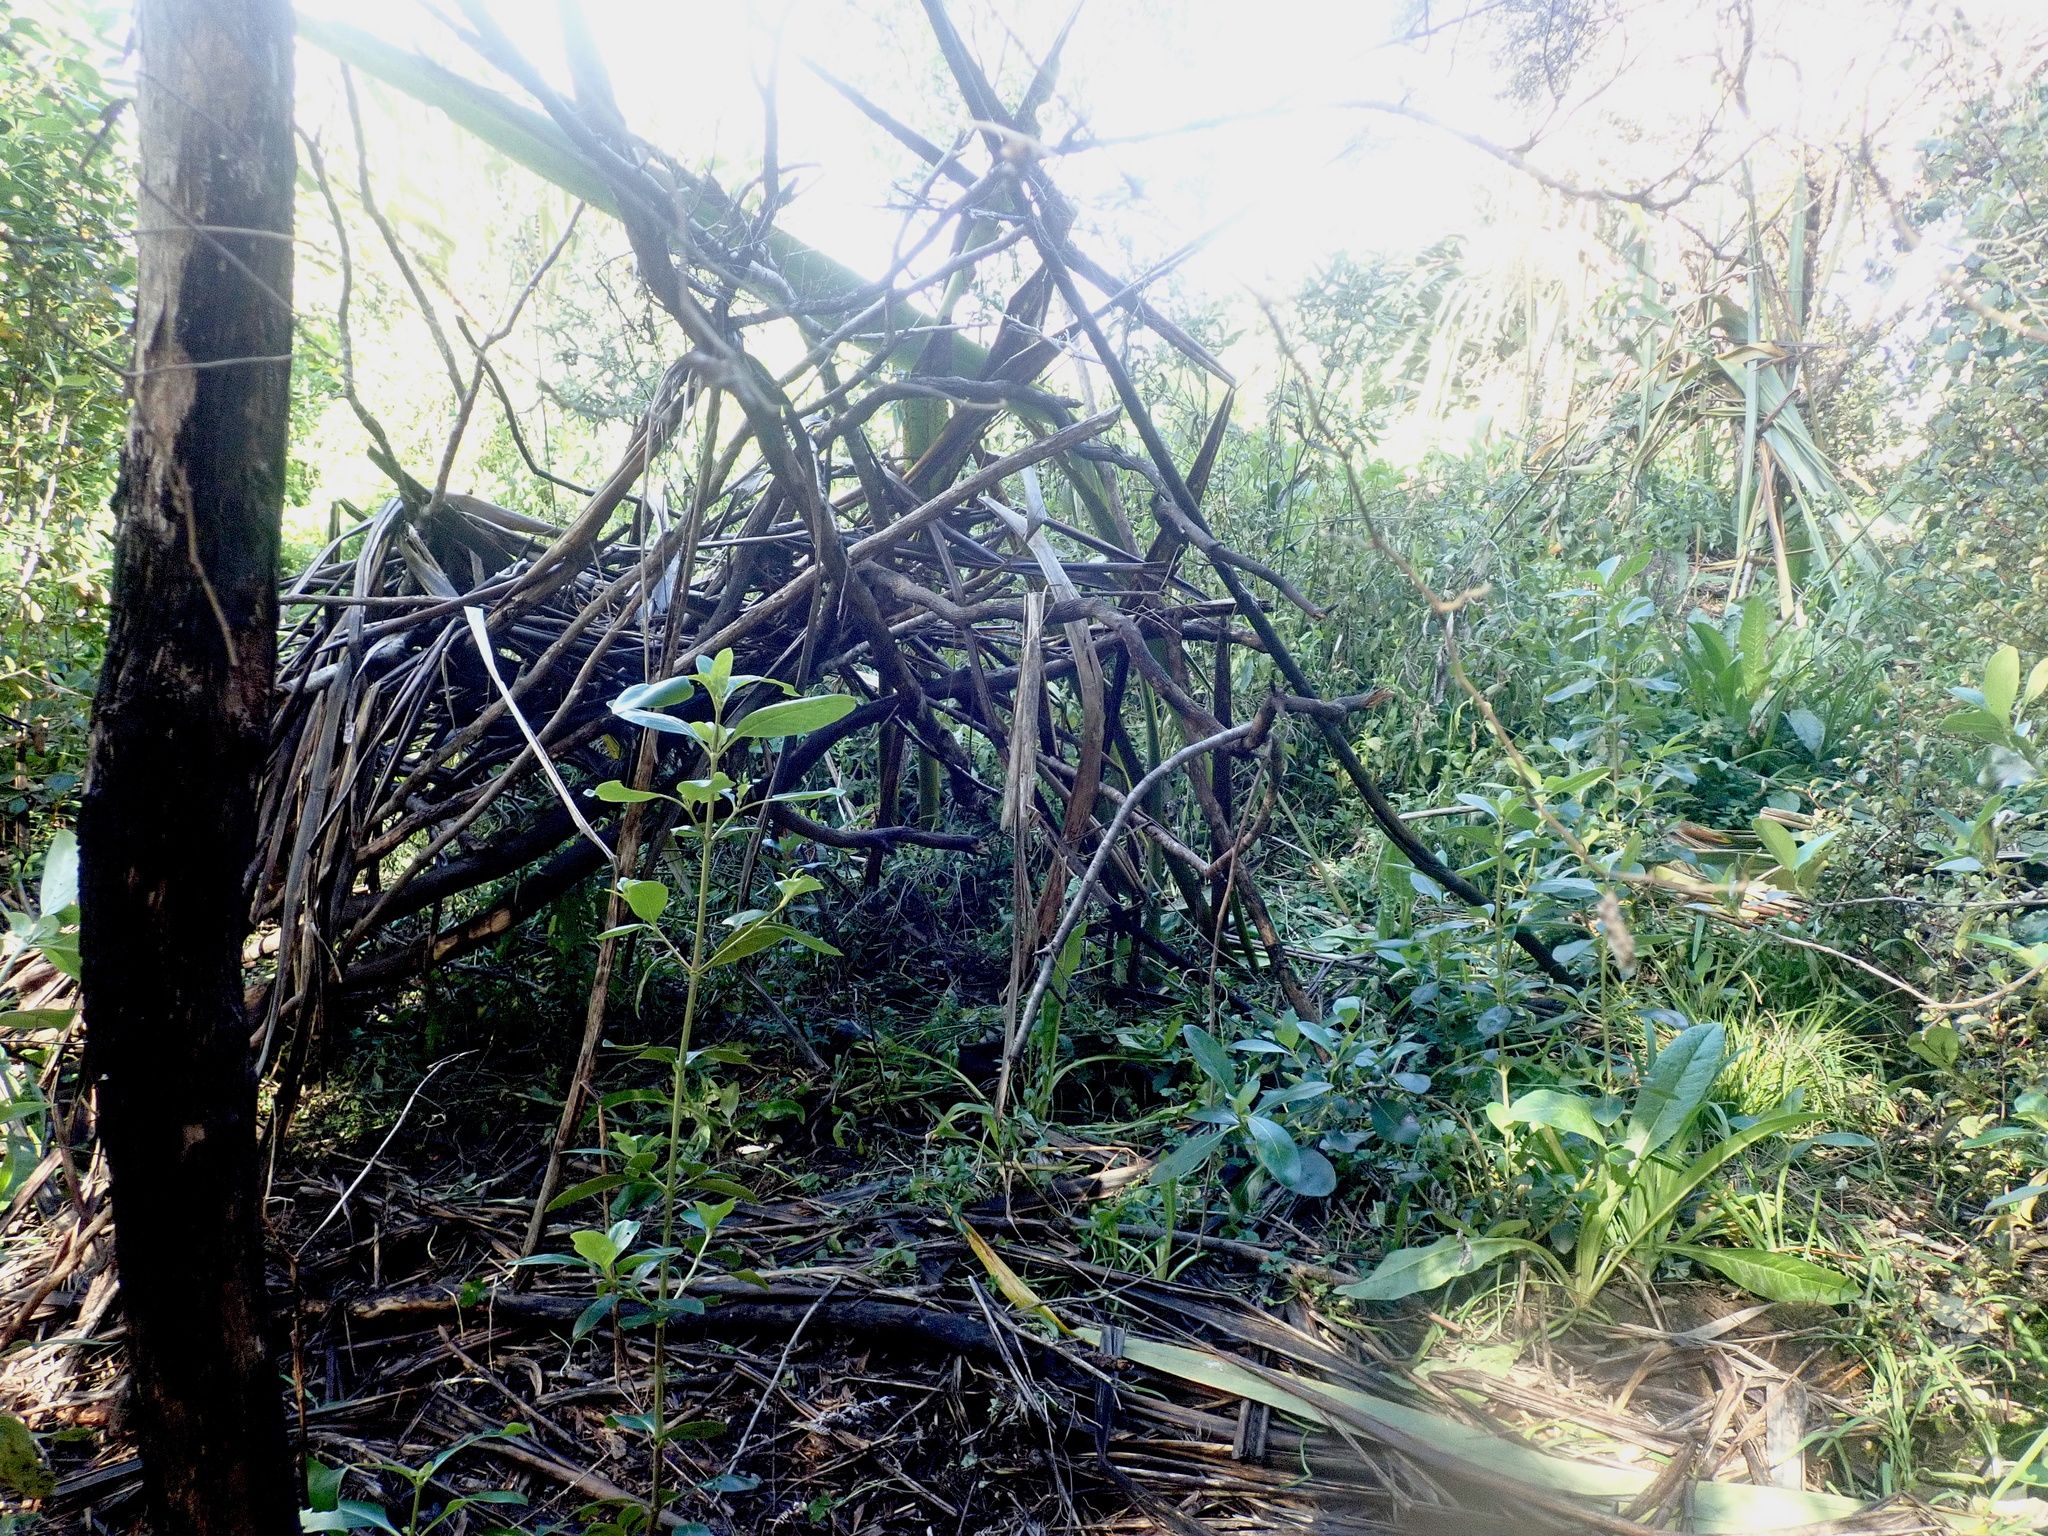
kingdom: Plantae
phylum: Tracheophyta
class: Magnoliopsida
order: Gentianales
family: Rubiaceae
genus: Coprosma
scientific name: Coprosma robusta
